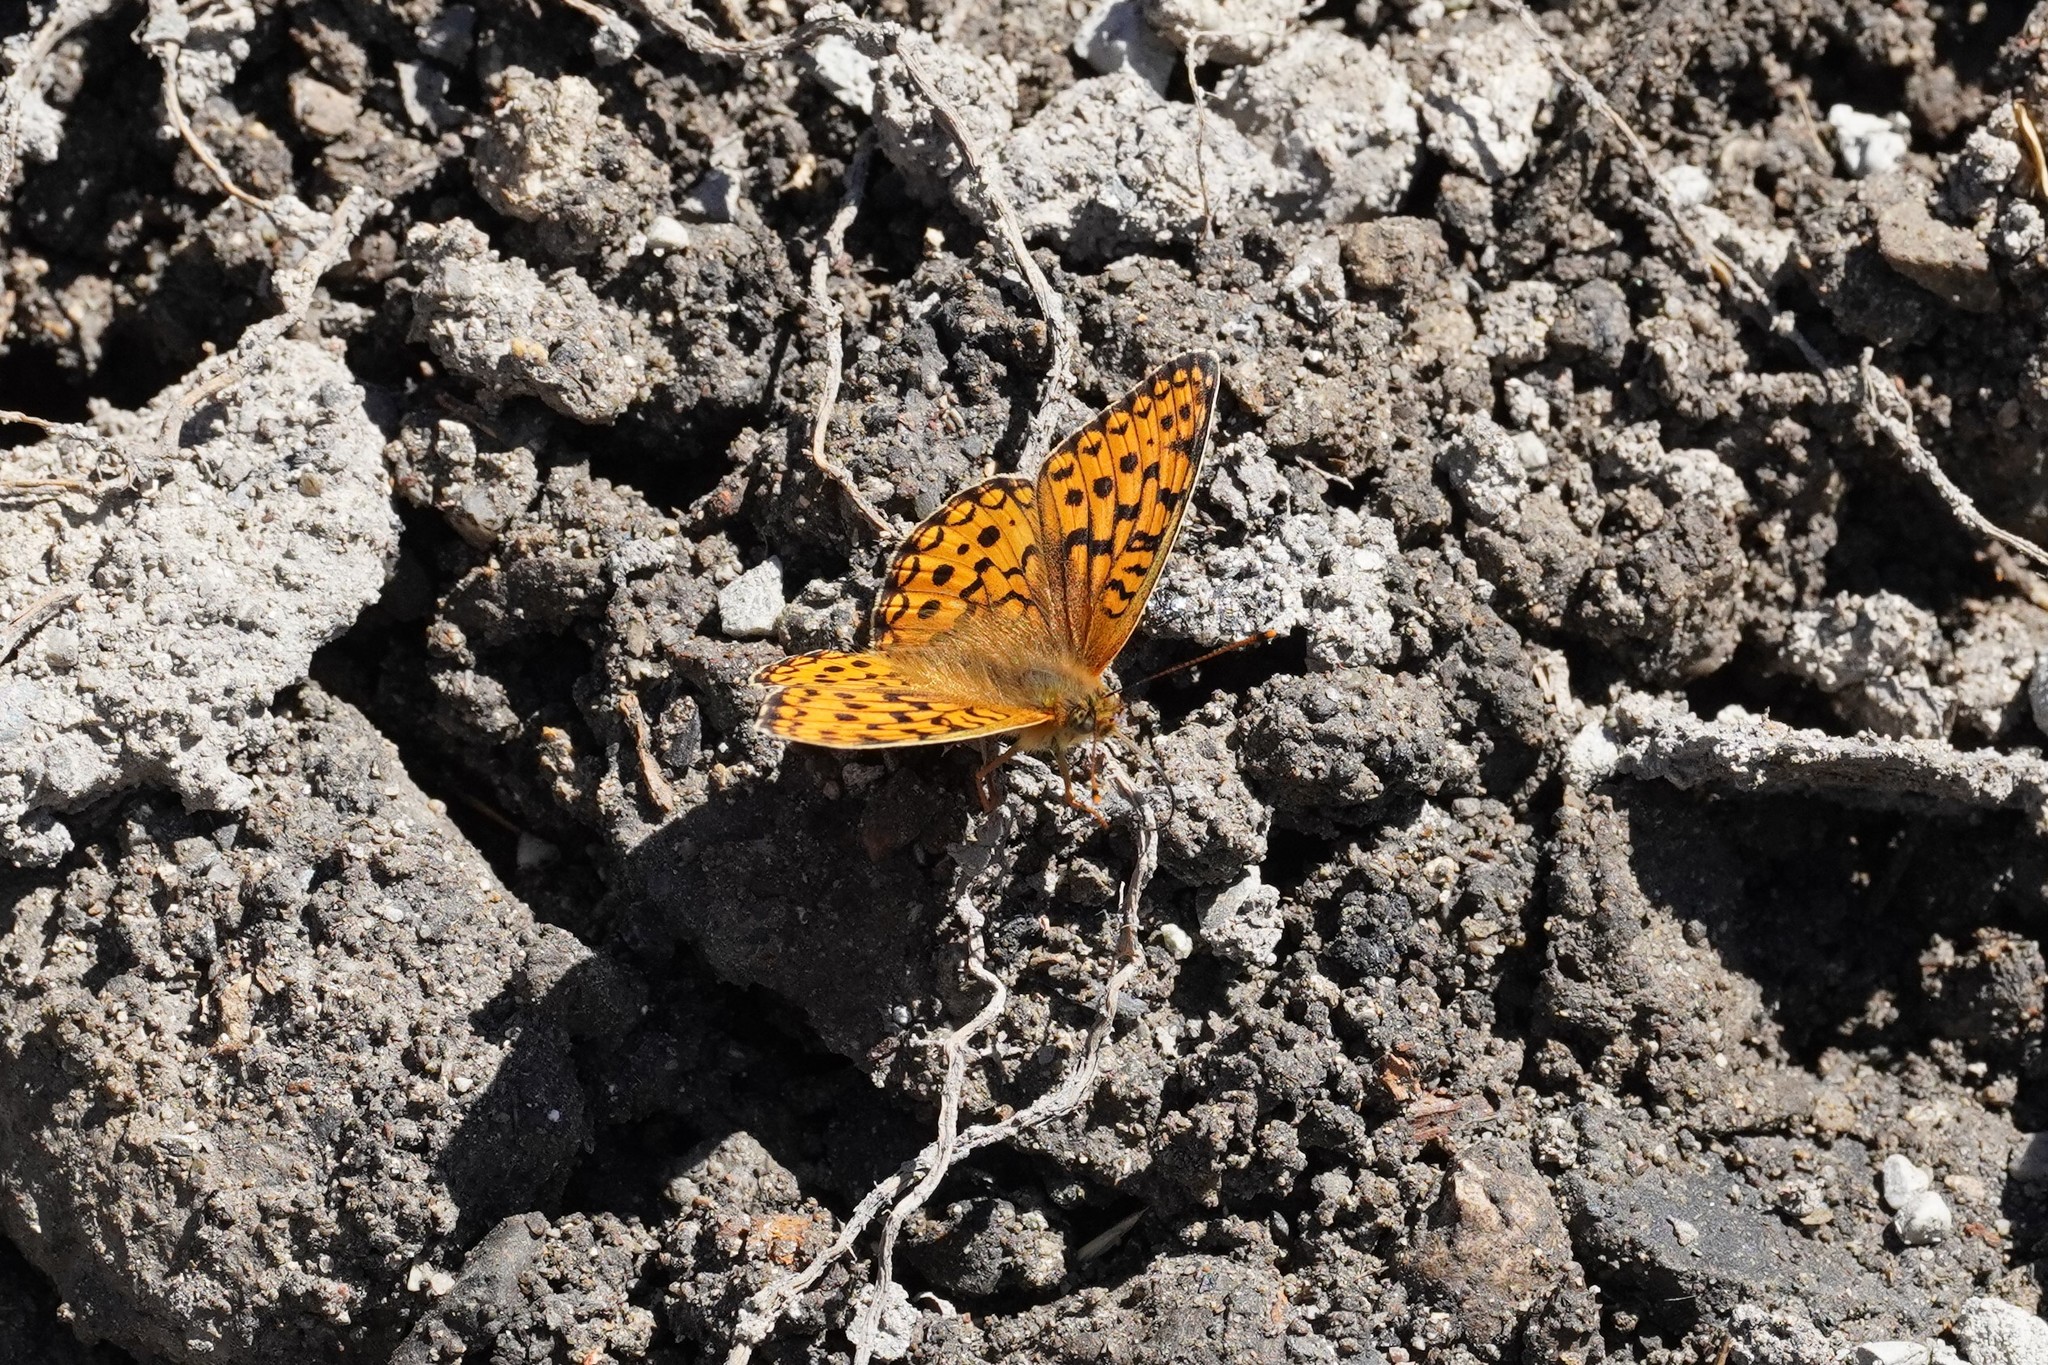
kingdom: Animalia
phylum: Arthropoda
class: Insecta
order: Lepidoptera
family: Nymphalidae
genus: Fabriciana
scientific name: Fabriciana niobe
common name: Niobe fritillary
